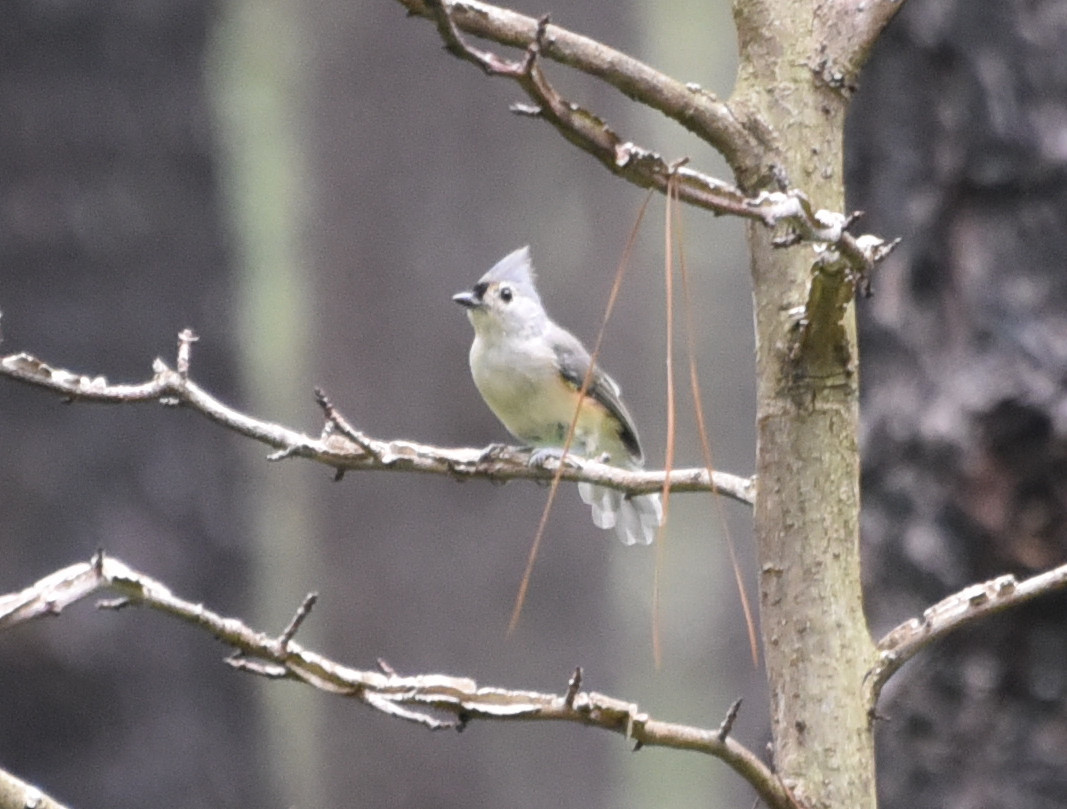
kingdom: Animalia
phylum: Chordata
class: Aves
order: Passeriformes
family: Paridae
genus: Baeolophus
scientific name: Baeolophus bicolor
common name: Tufted titmouse
